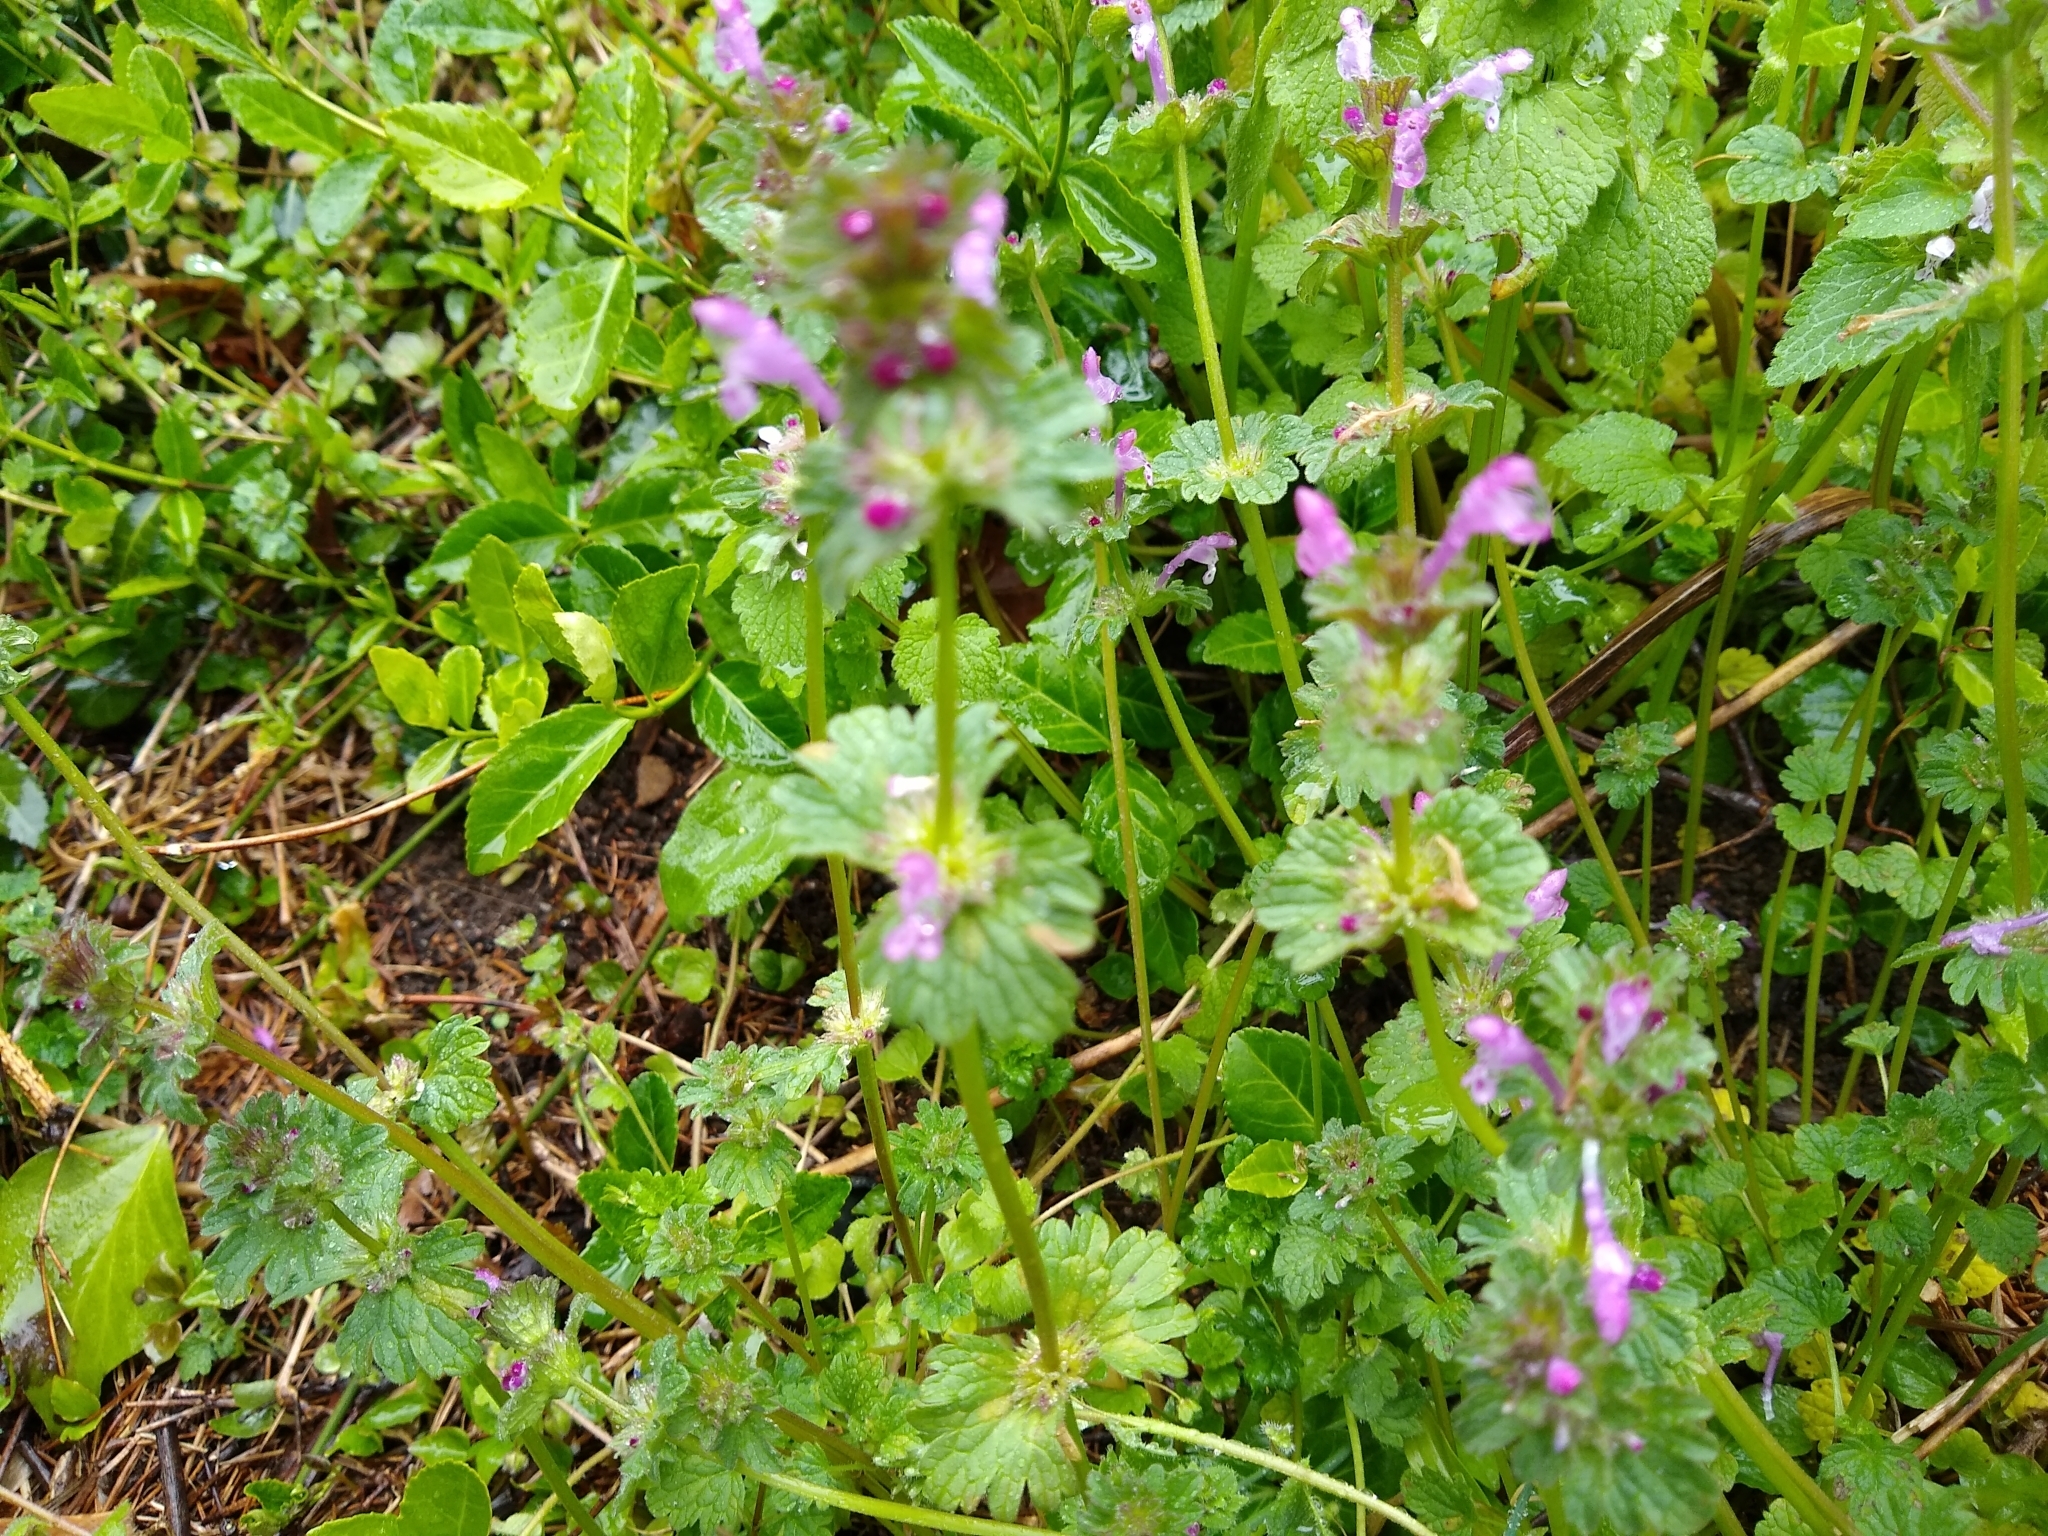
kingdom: Plantae
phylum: Tracheophyta
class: Magnoliopsida
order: Lamiales
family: Lamiaceae
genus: Lamium
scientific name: Lamium amplexicaule
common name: Henbit dead-nettle
